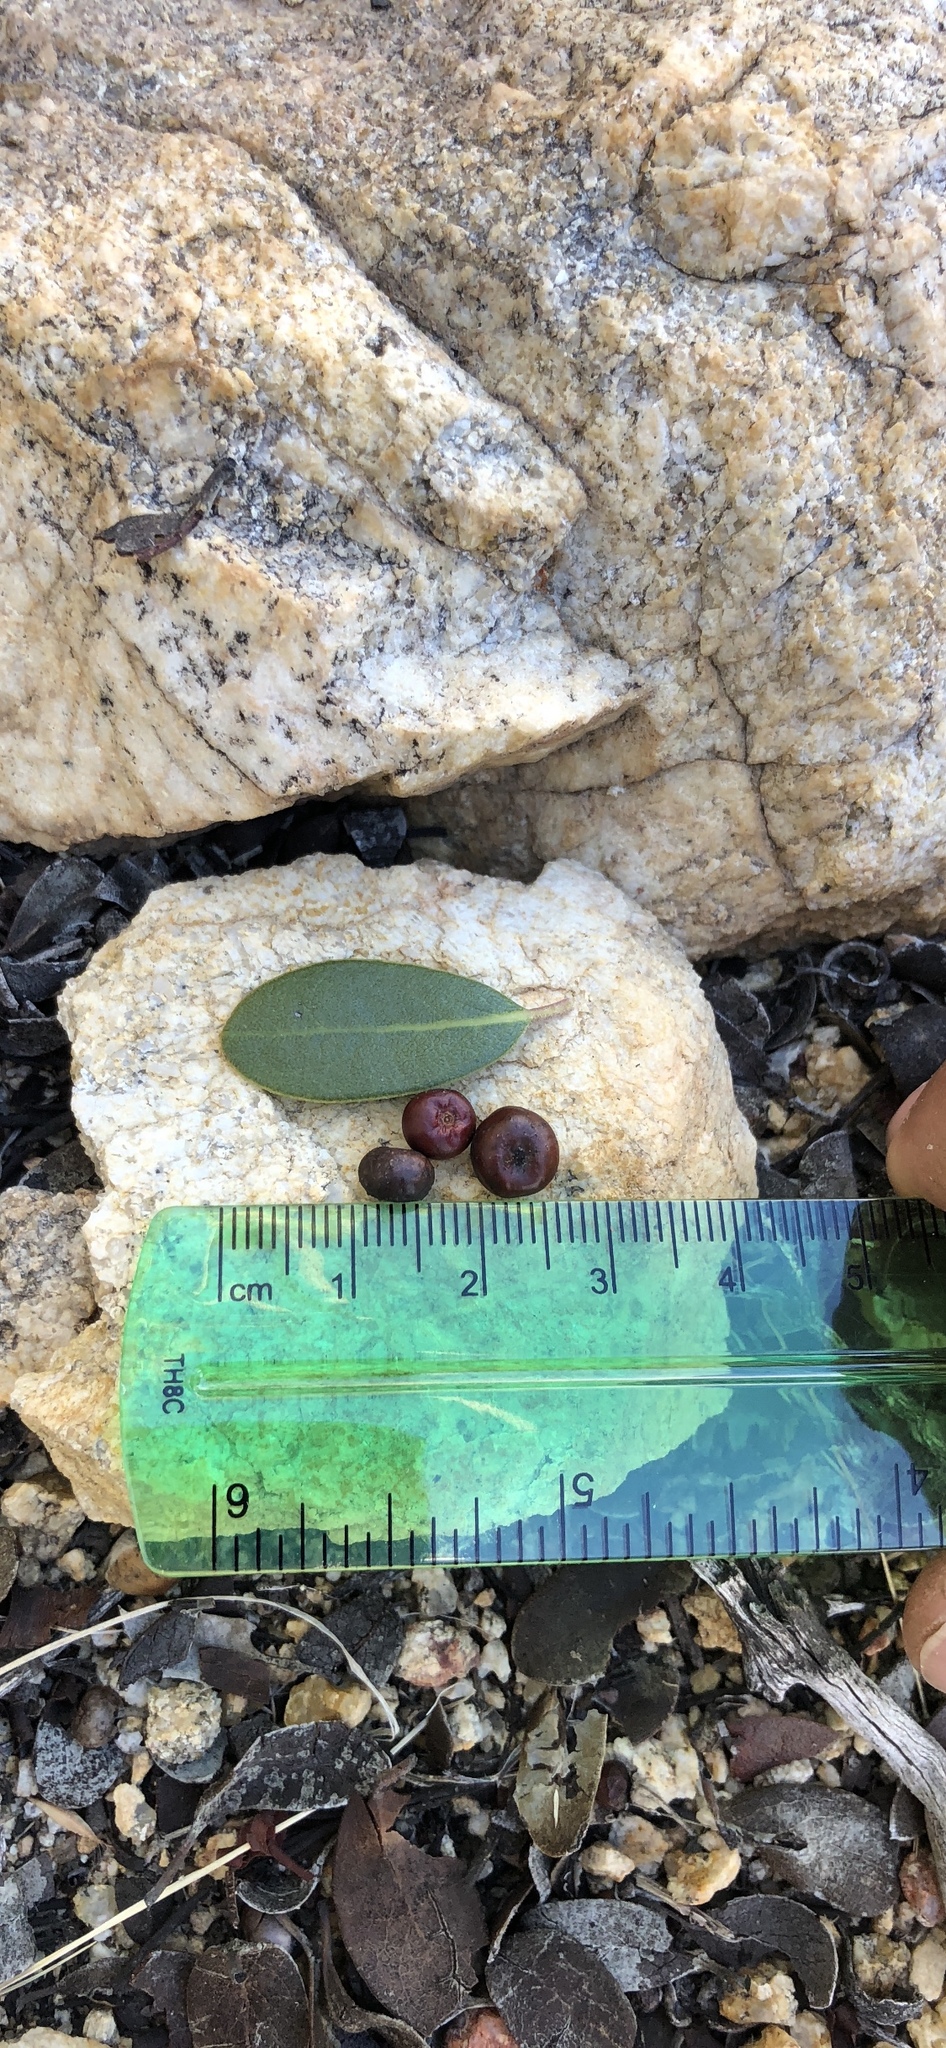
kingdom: Plantae
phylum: Tracheophyta
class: Magnoliopsida
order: Ericales
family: Ericaceae
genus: Arctostaphylos
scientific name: Arctostaphylos pungens
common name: Mexican manzanita
